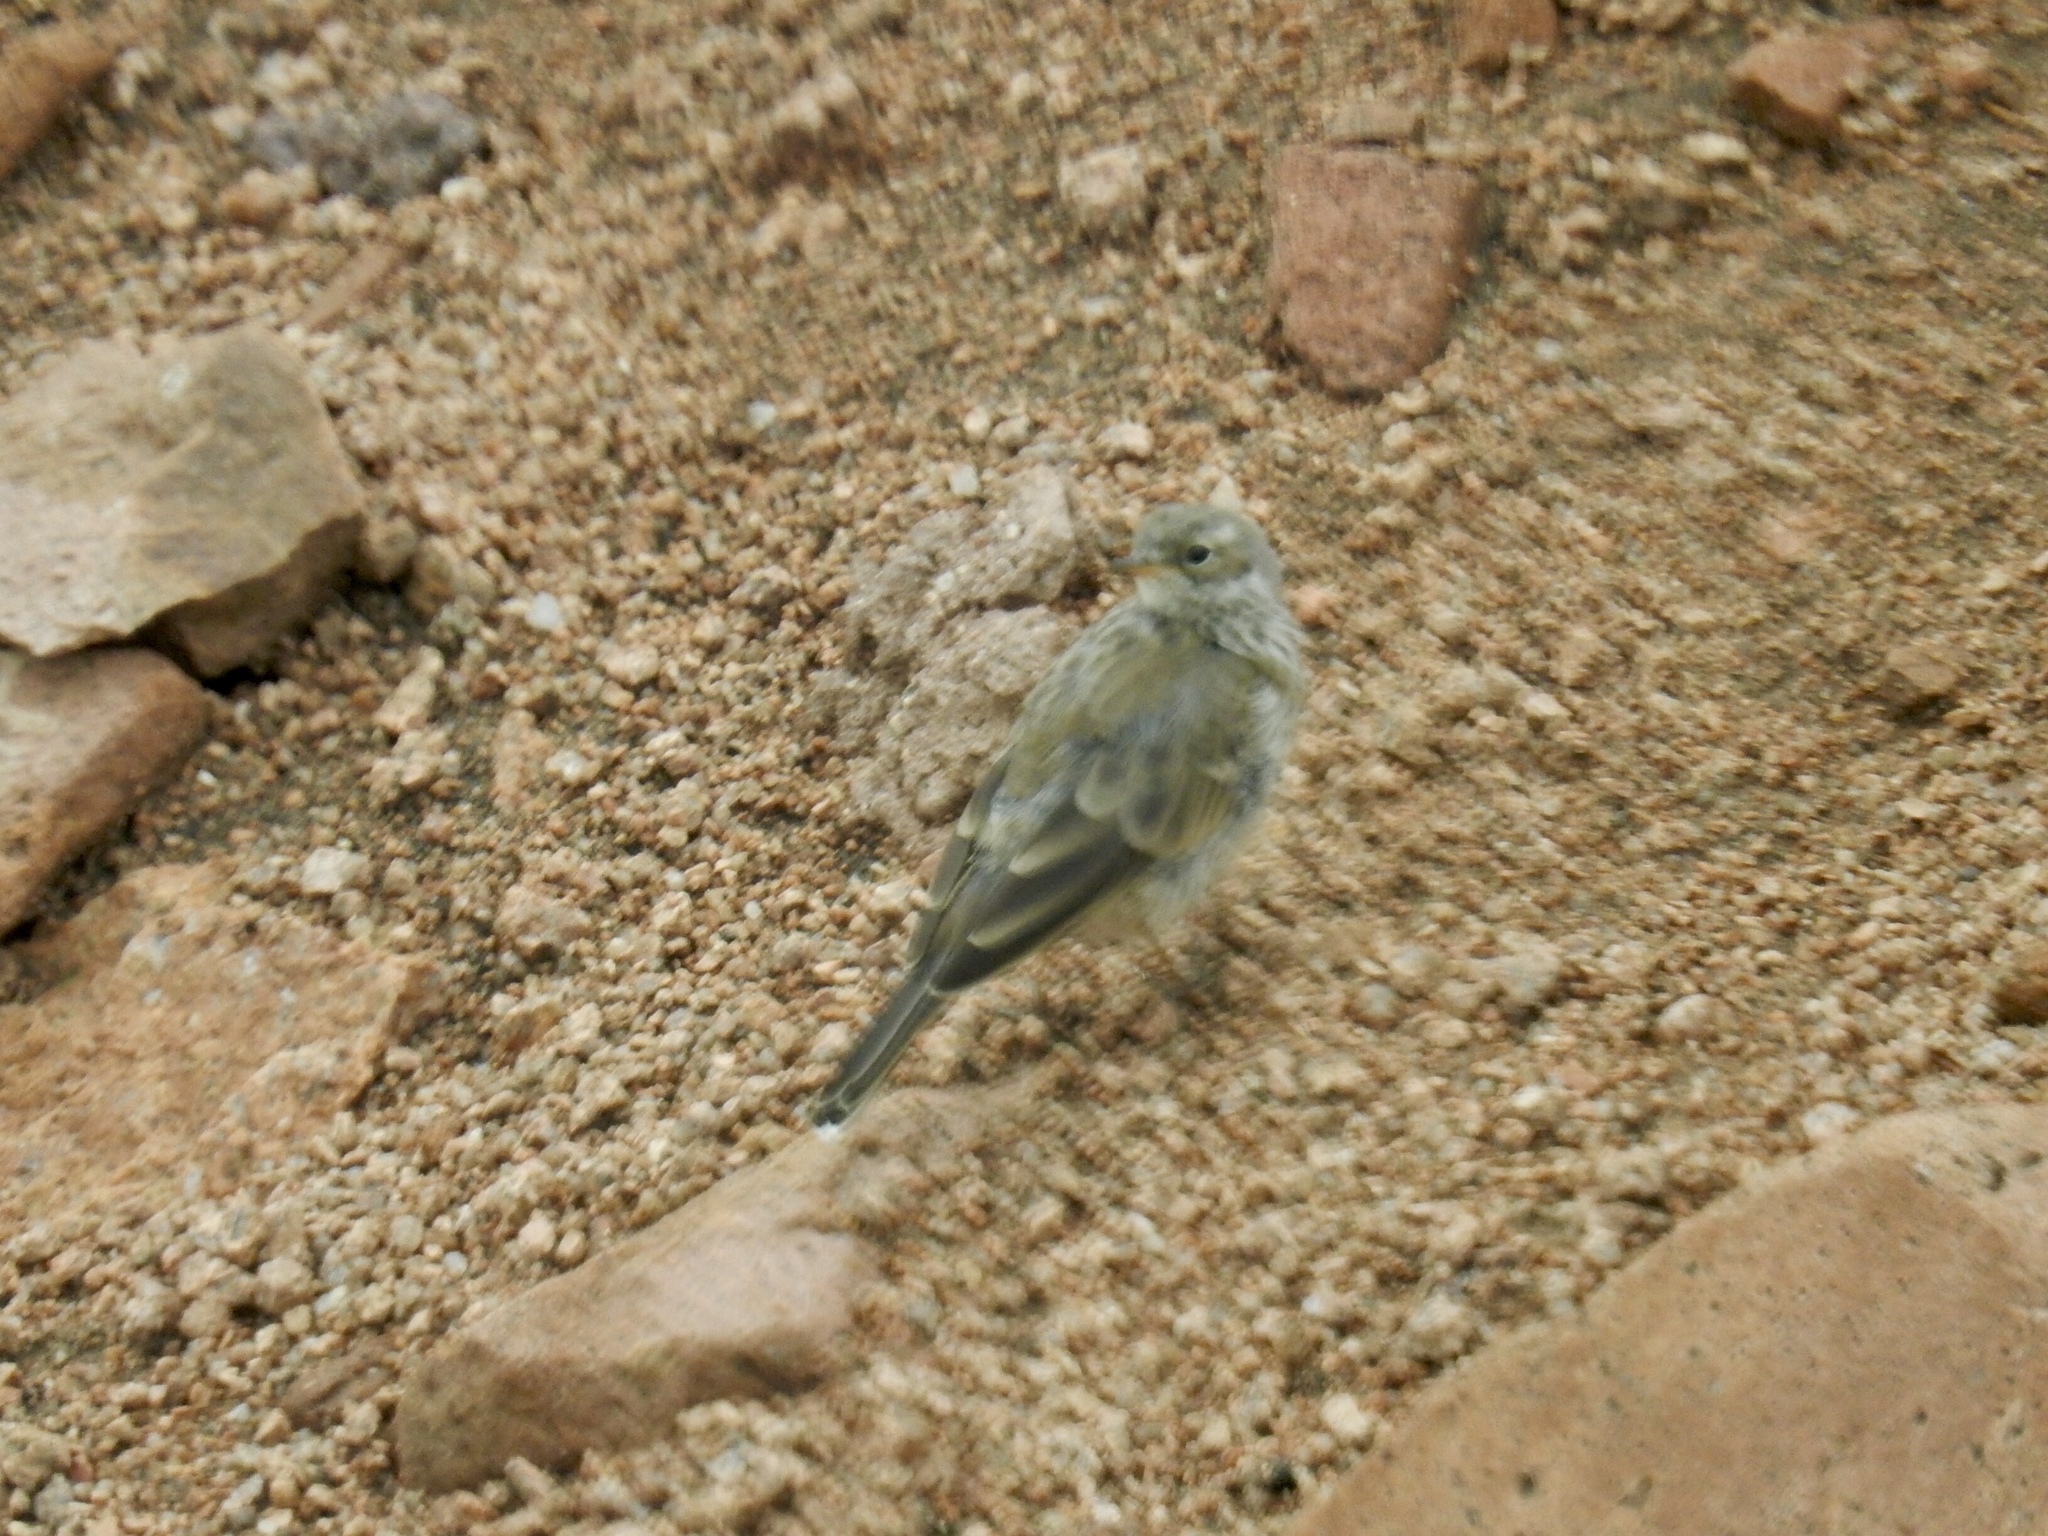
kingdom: Animalia
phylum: Chordata
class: Aves
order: Passeriformes
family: Motacillidae
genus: Anthus
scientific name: Anthus rubescens
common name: Buff-bellied pipit
